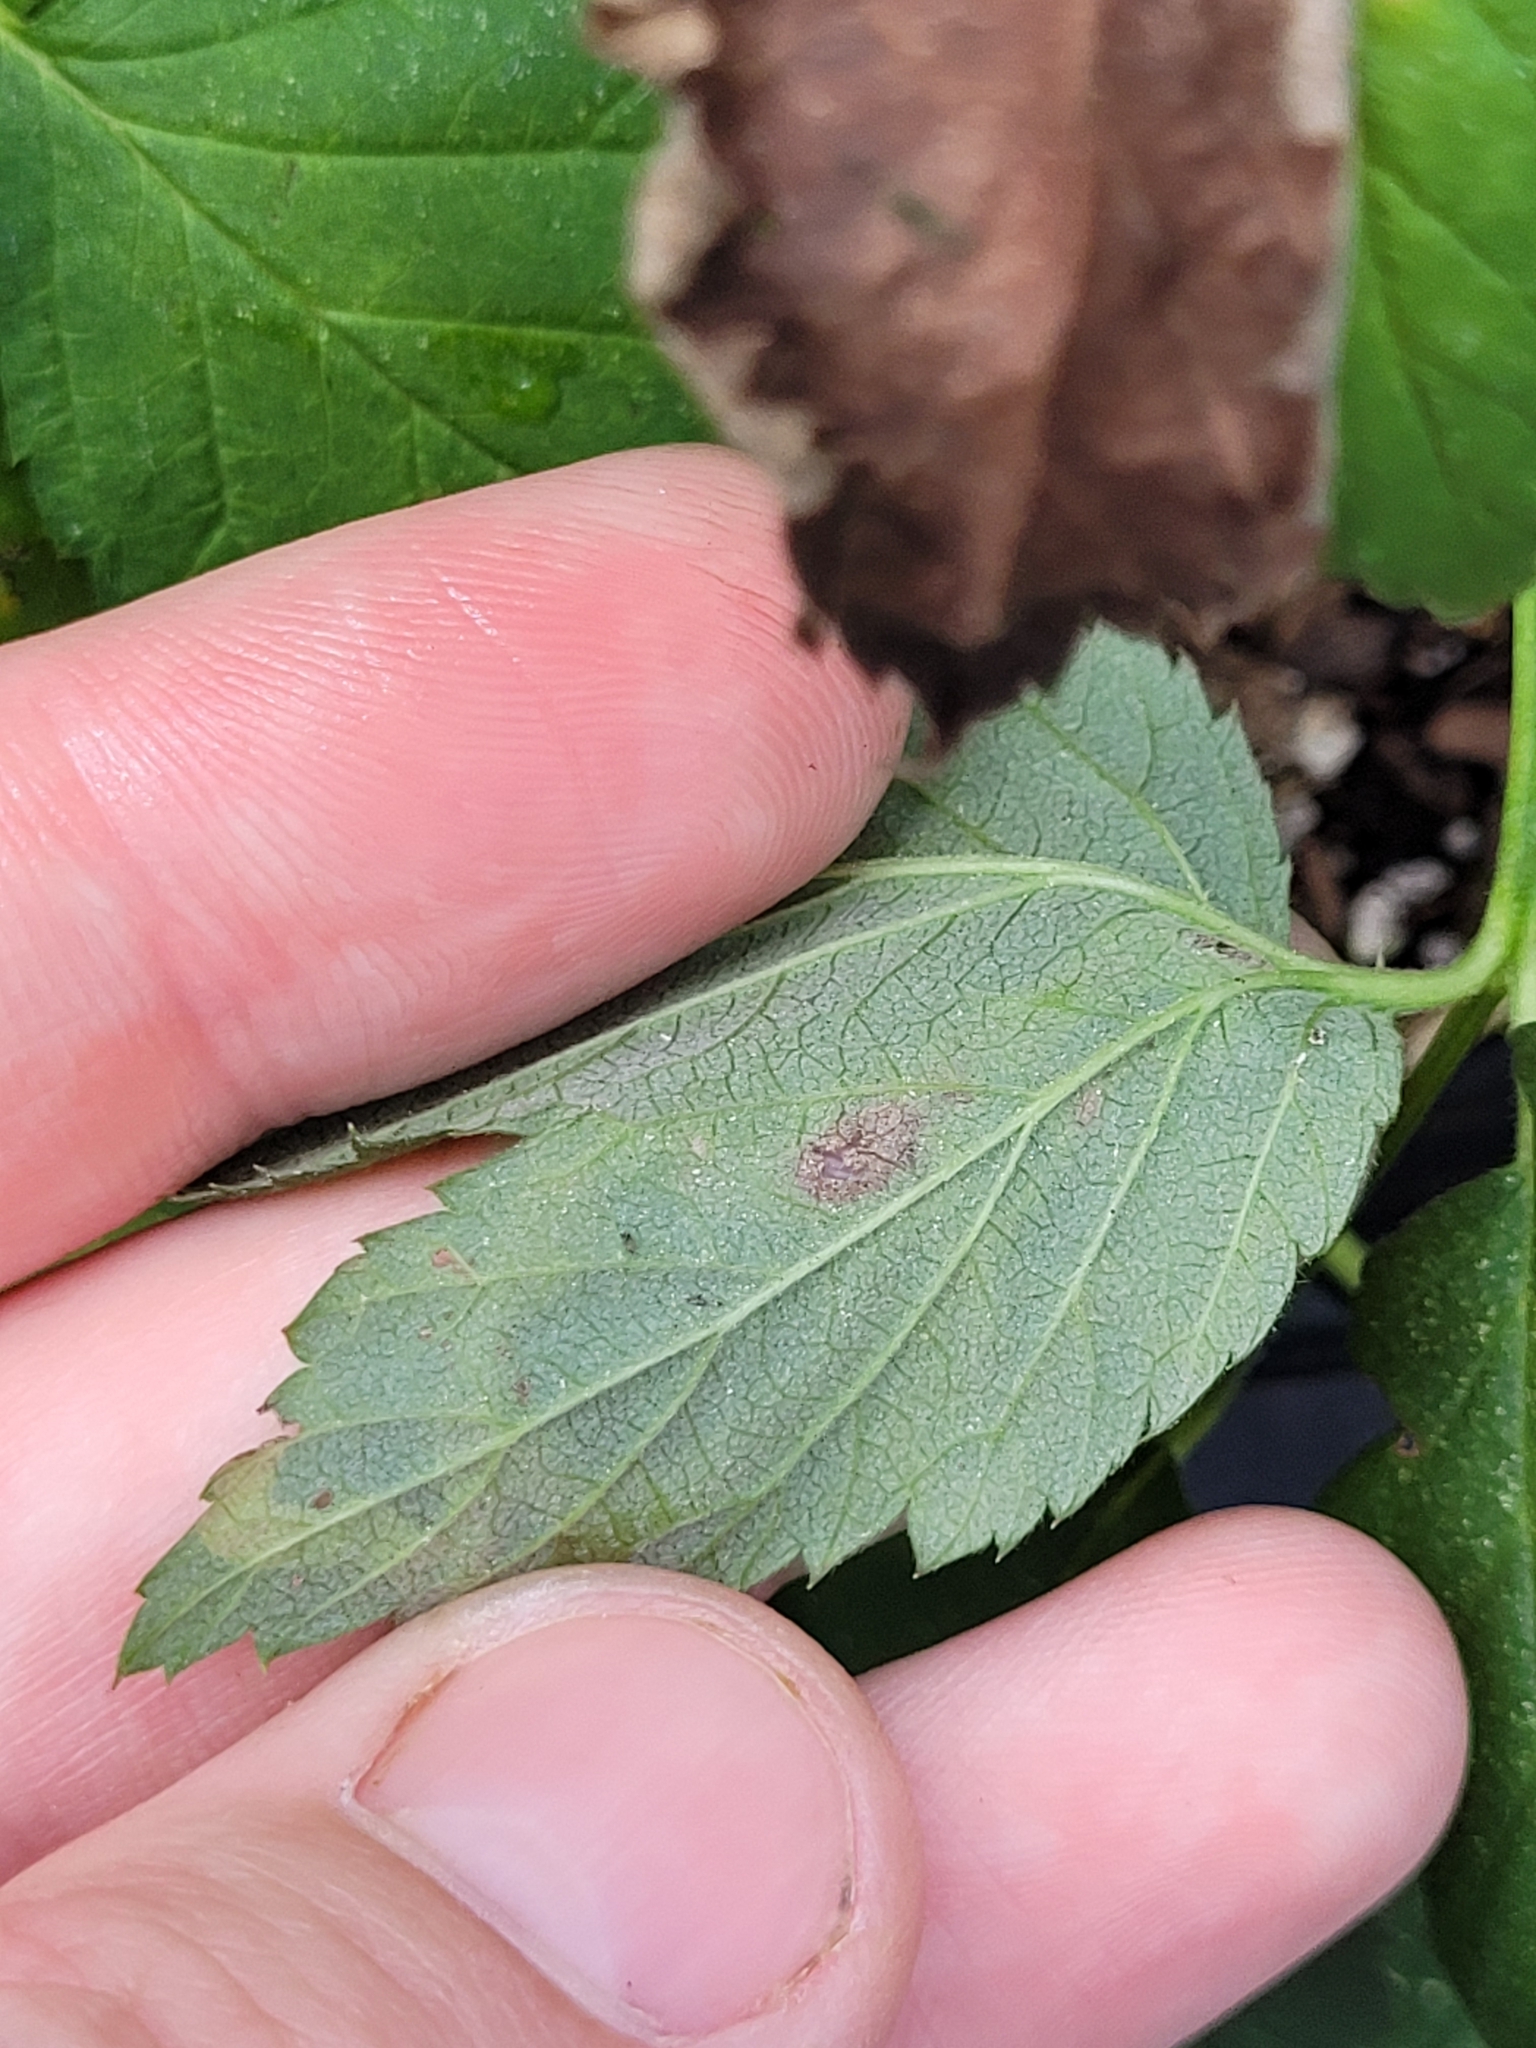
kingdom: Animalia
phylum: Arthropoda
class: Insecta
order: Diptera
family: Agromyzidae
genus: Agromyza
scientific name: Agromyza vockerothi
